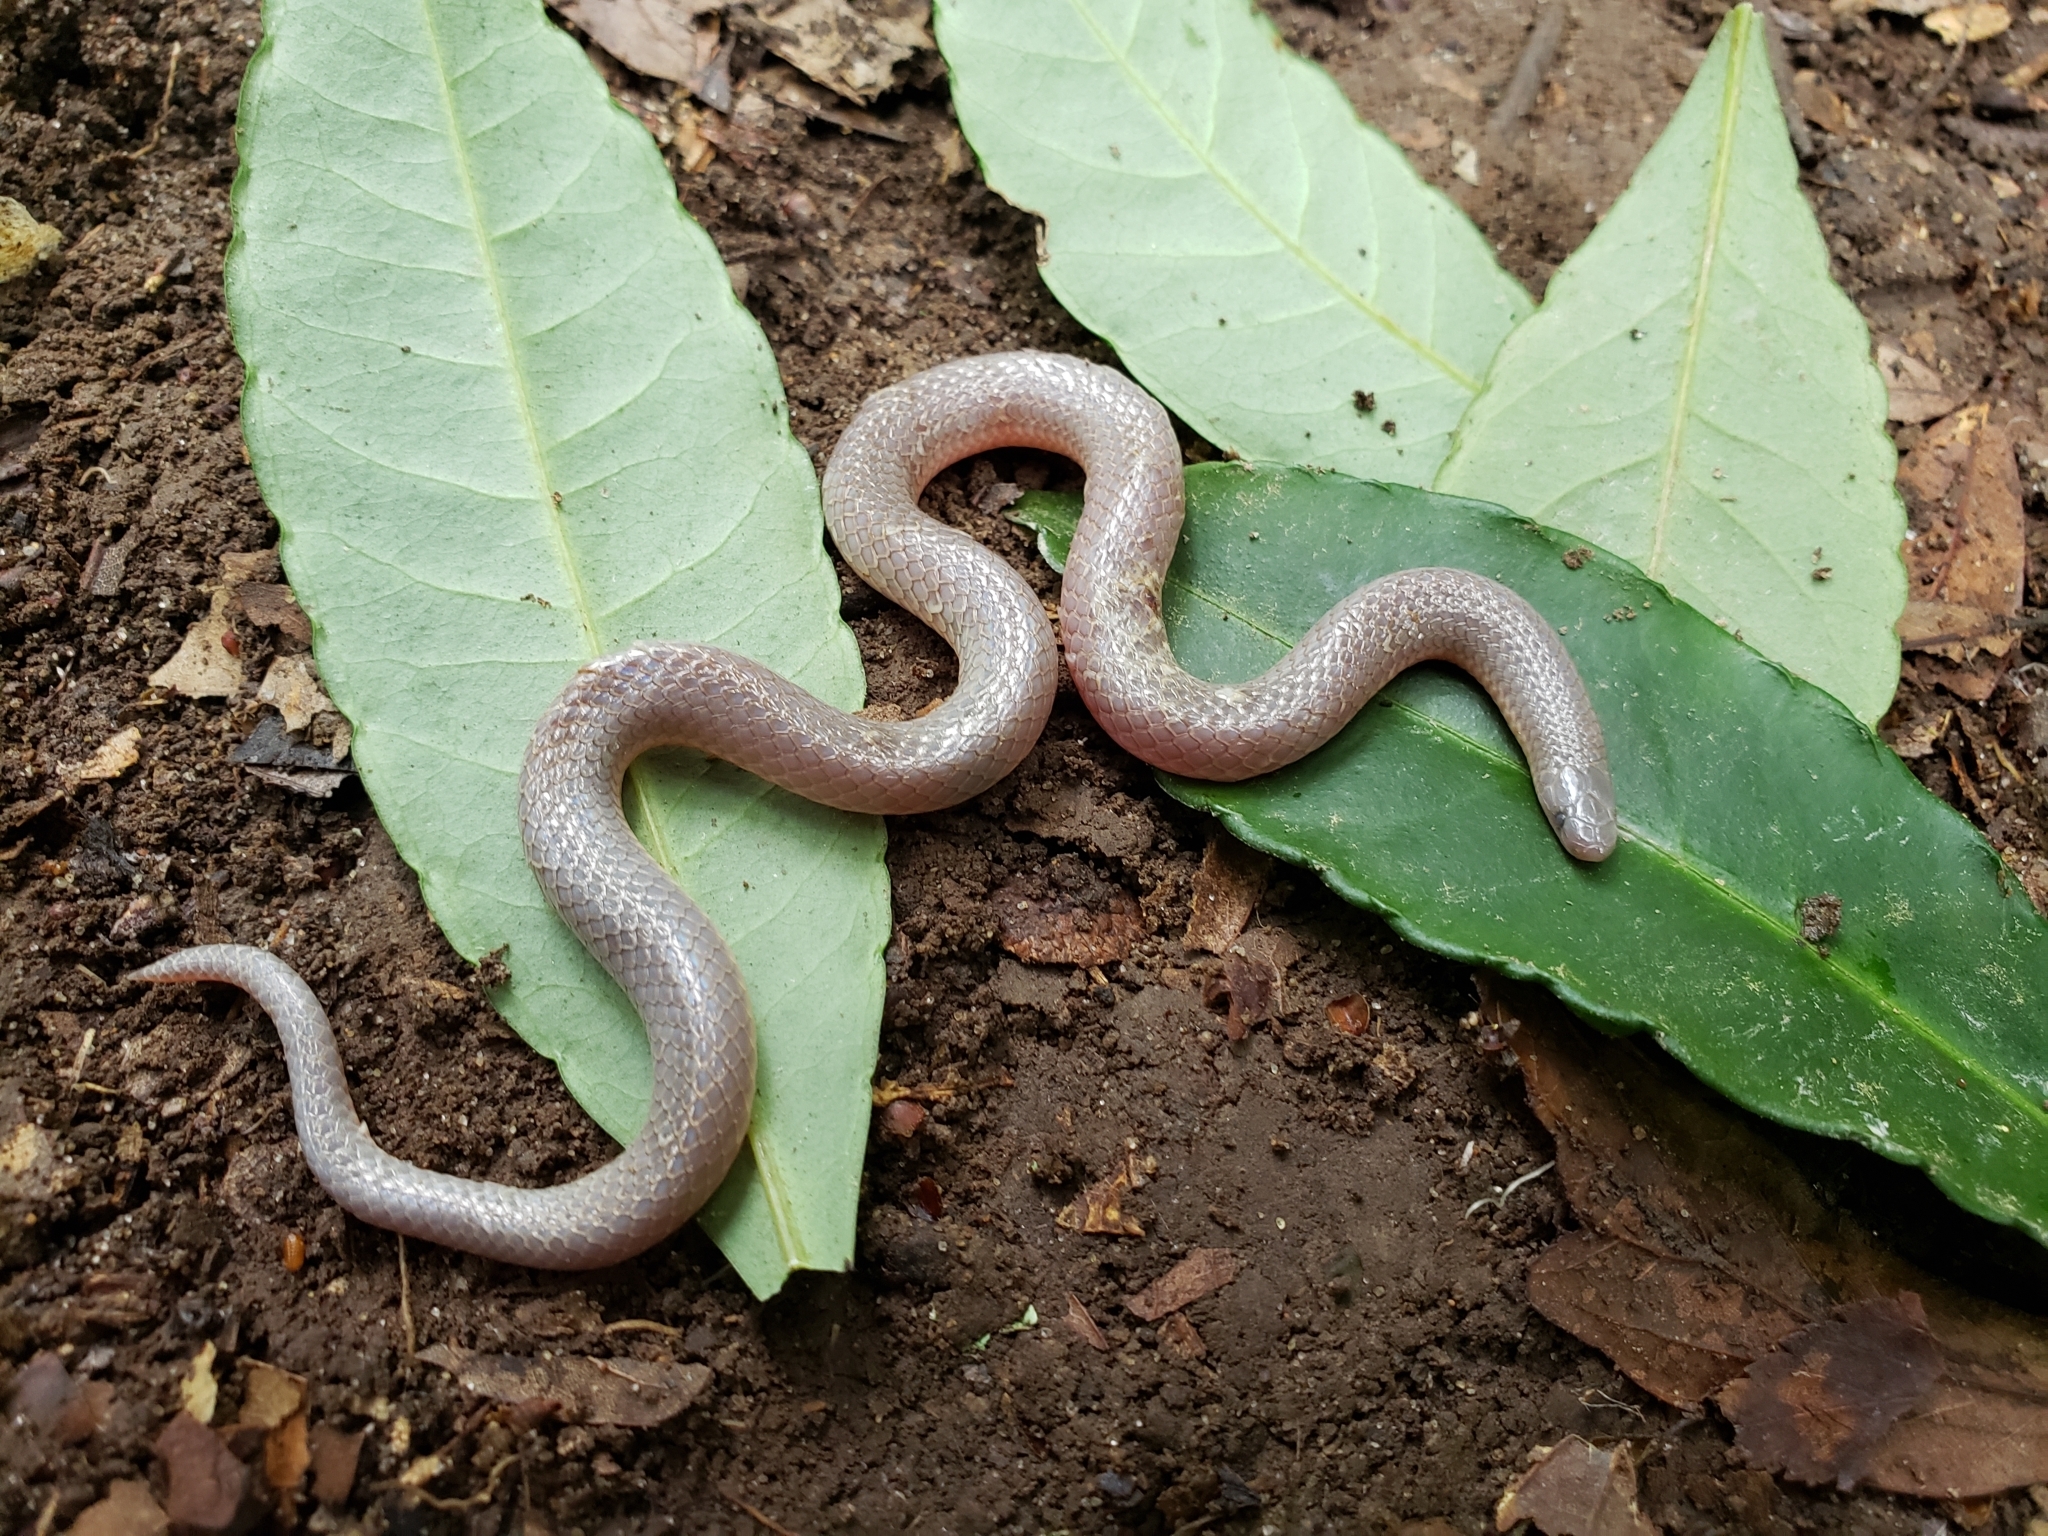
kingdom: Animalia
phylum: Chordata
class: Squamata
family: Colubridae
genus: Carphophis
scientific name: Carphophis amoenus
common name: Eastern worm snake
